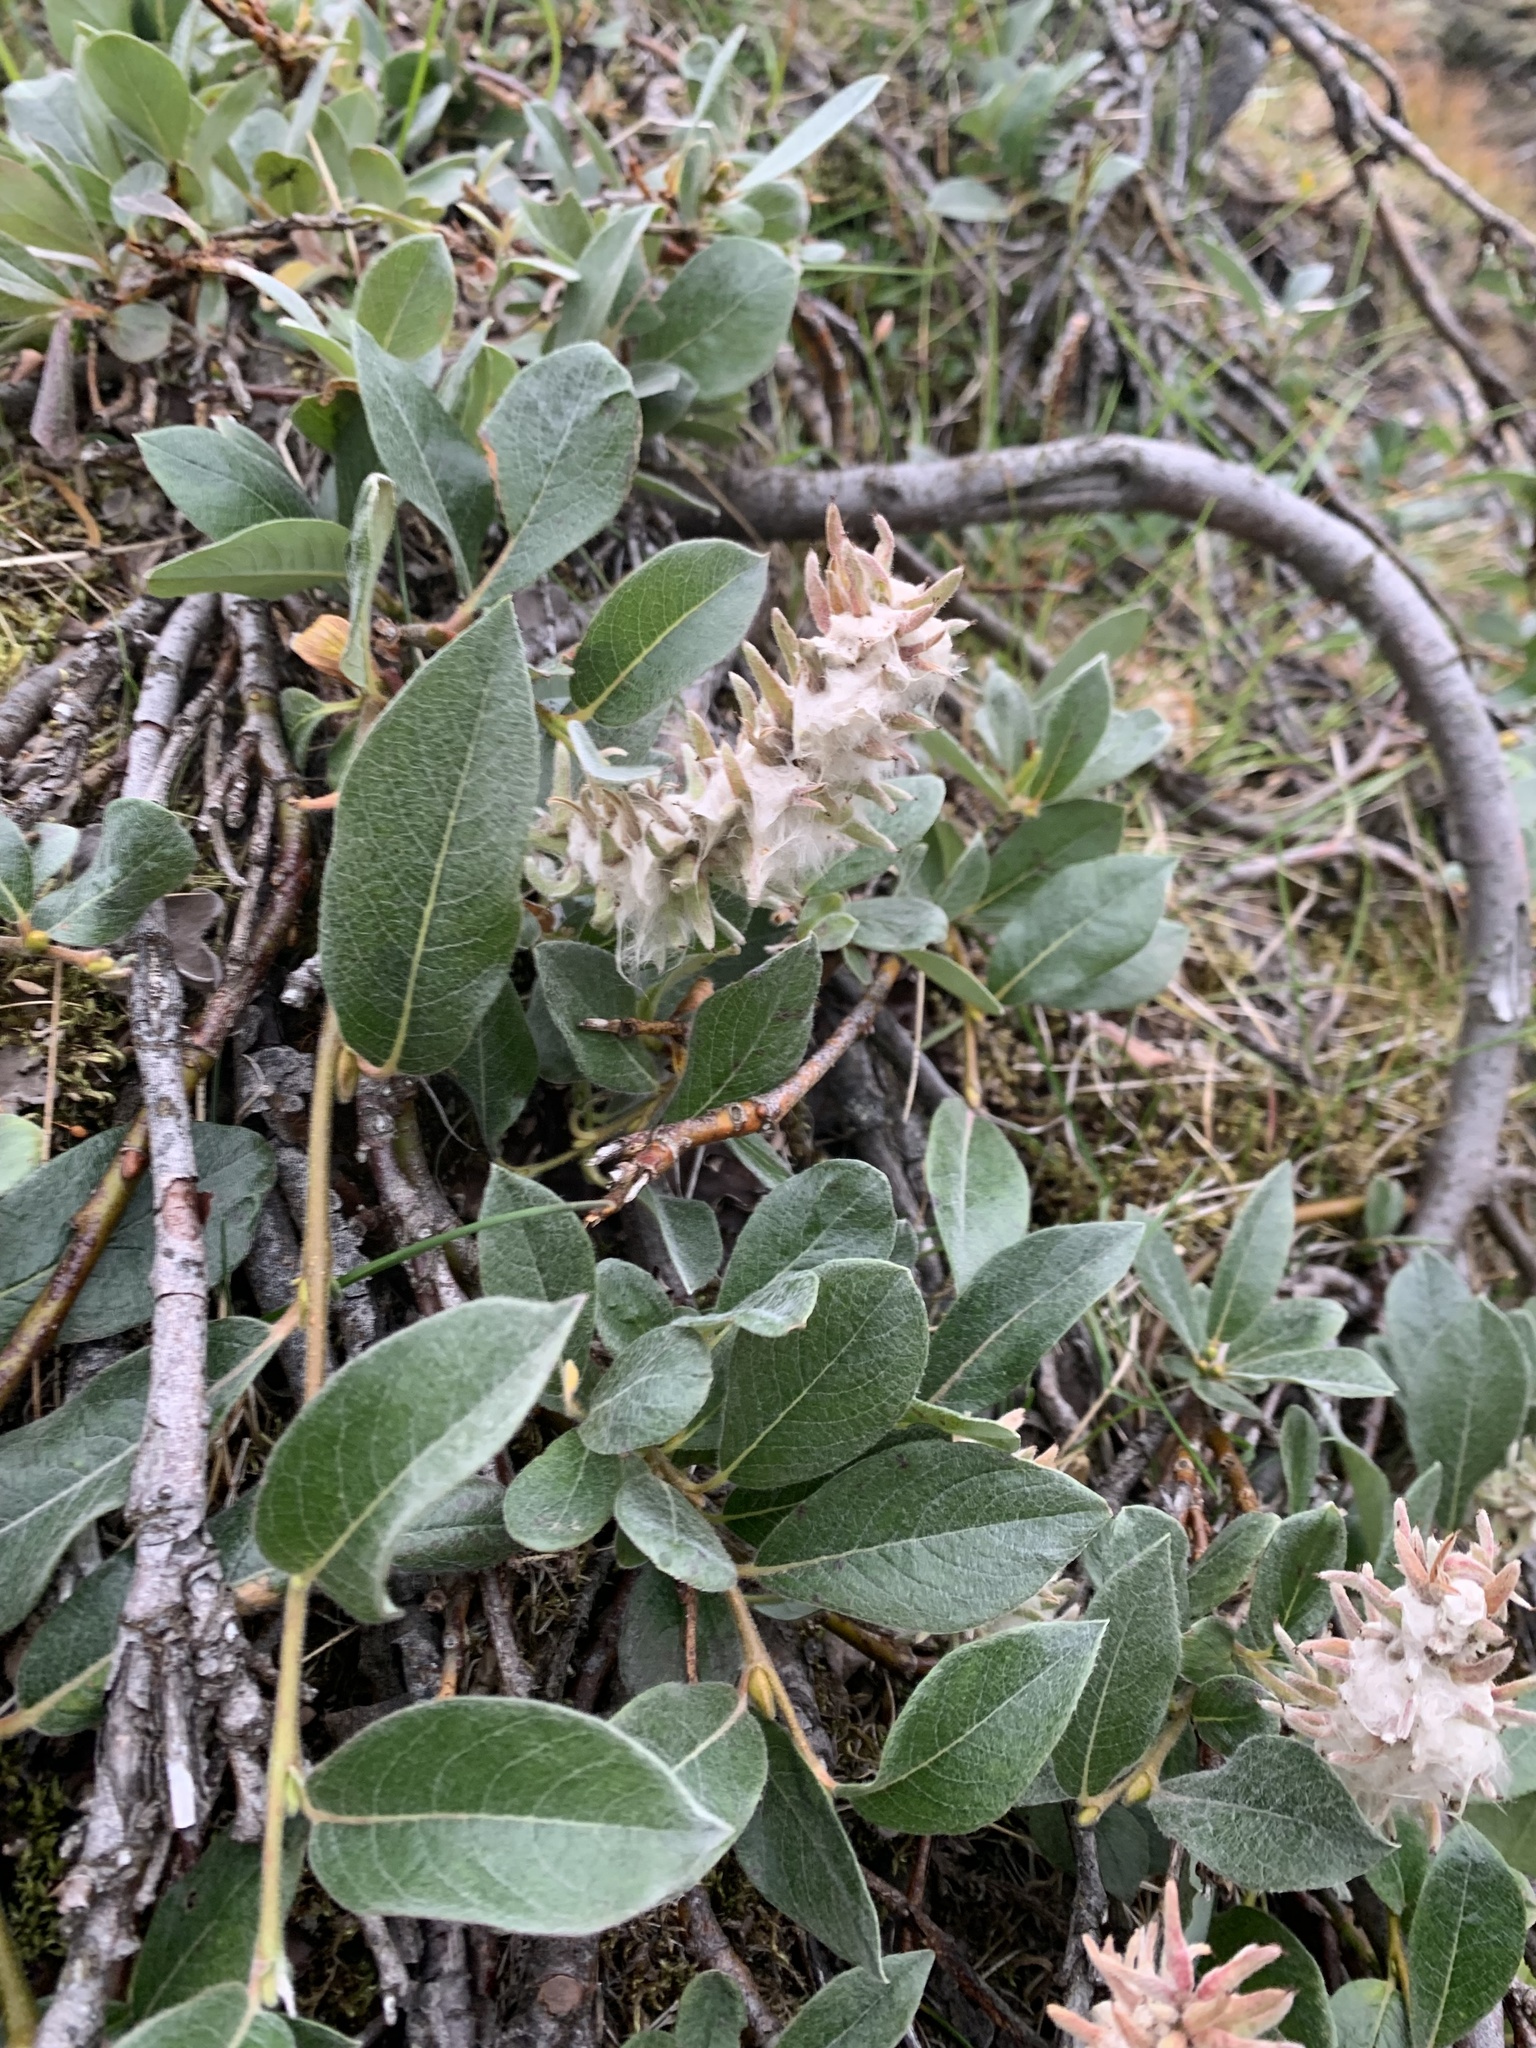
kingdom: Plantae
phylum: Tracheophyta
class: Magnoliopsida
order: Malpighiales
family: Salicaceae
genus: Salix
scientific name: Salix arctica
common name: Arctic willow
